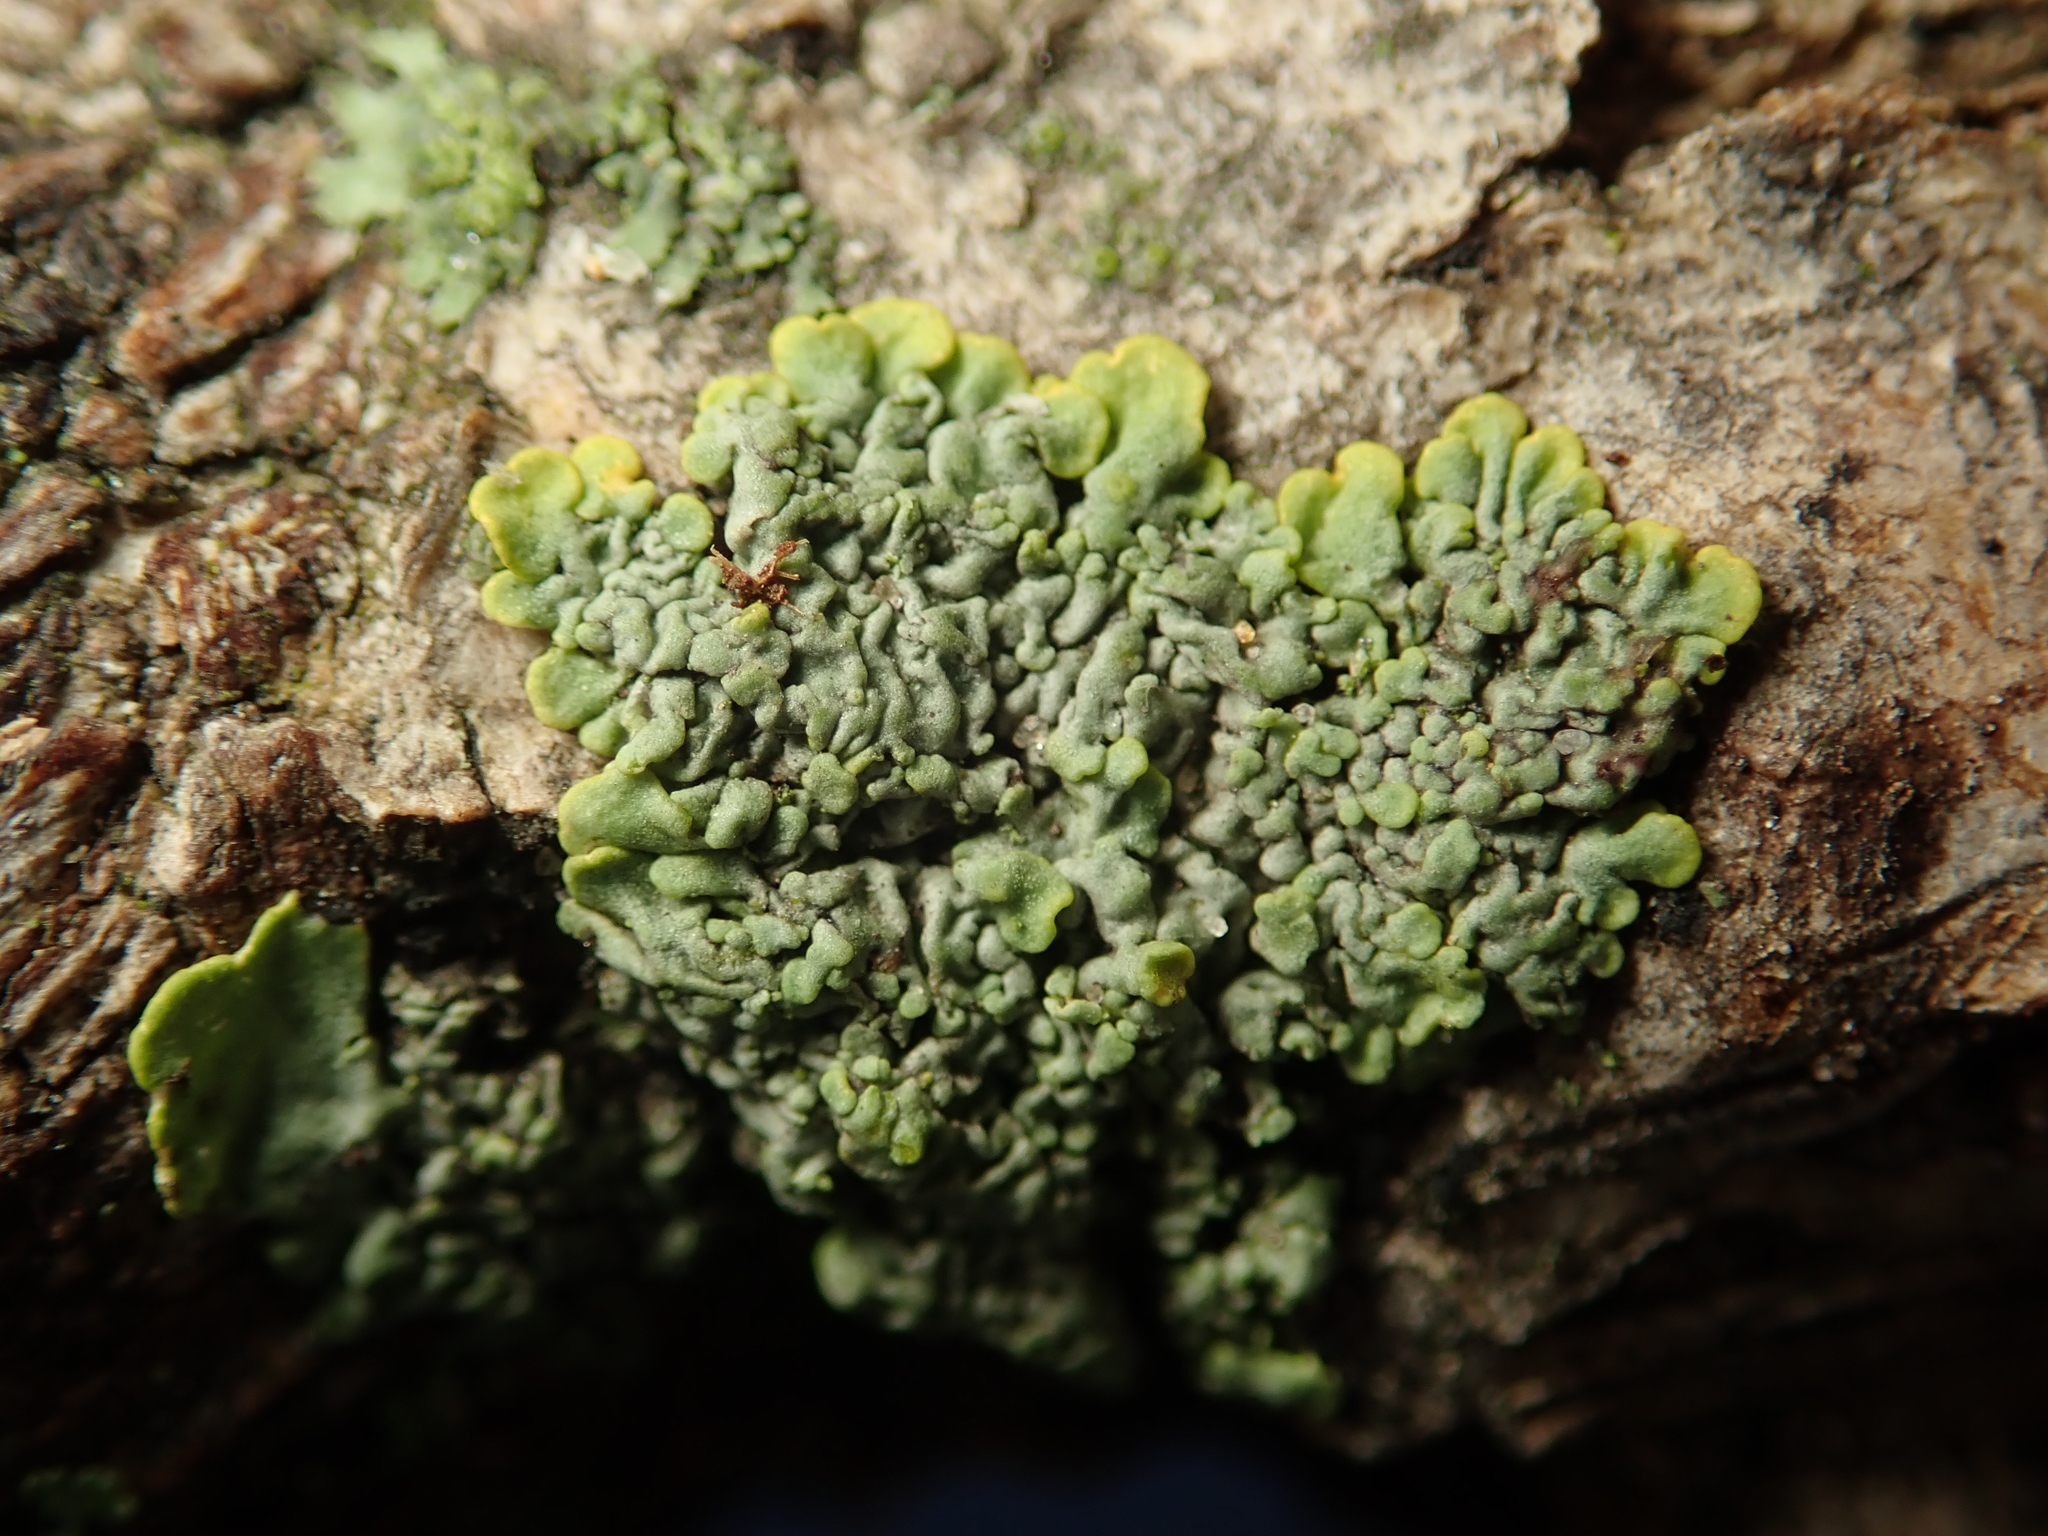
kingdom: Fungi
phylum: Ascomycota
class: Lecanoromycetes
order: Teloschistales
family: Teloschistaceae
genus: Xanthoria
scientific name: Xanthoria parietina
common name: Common orange lichen
